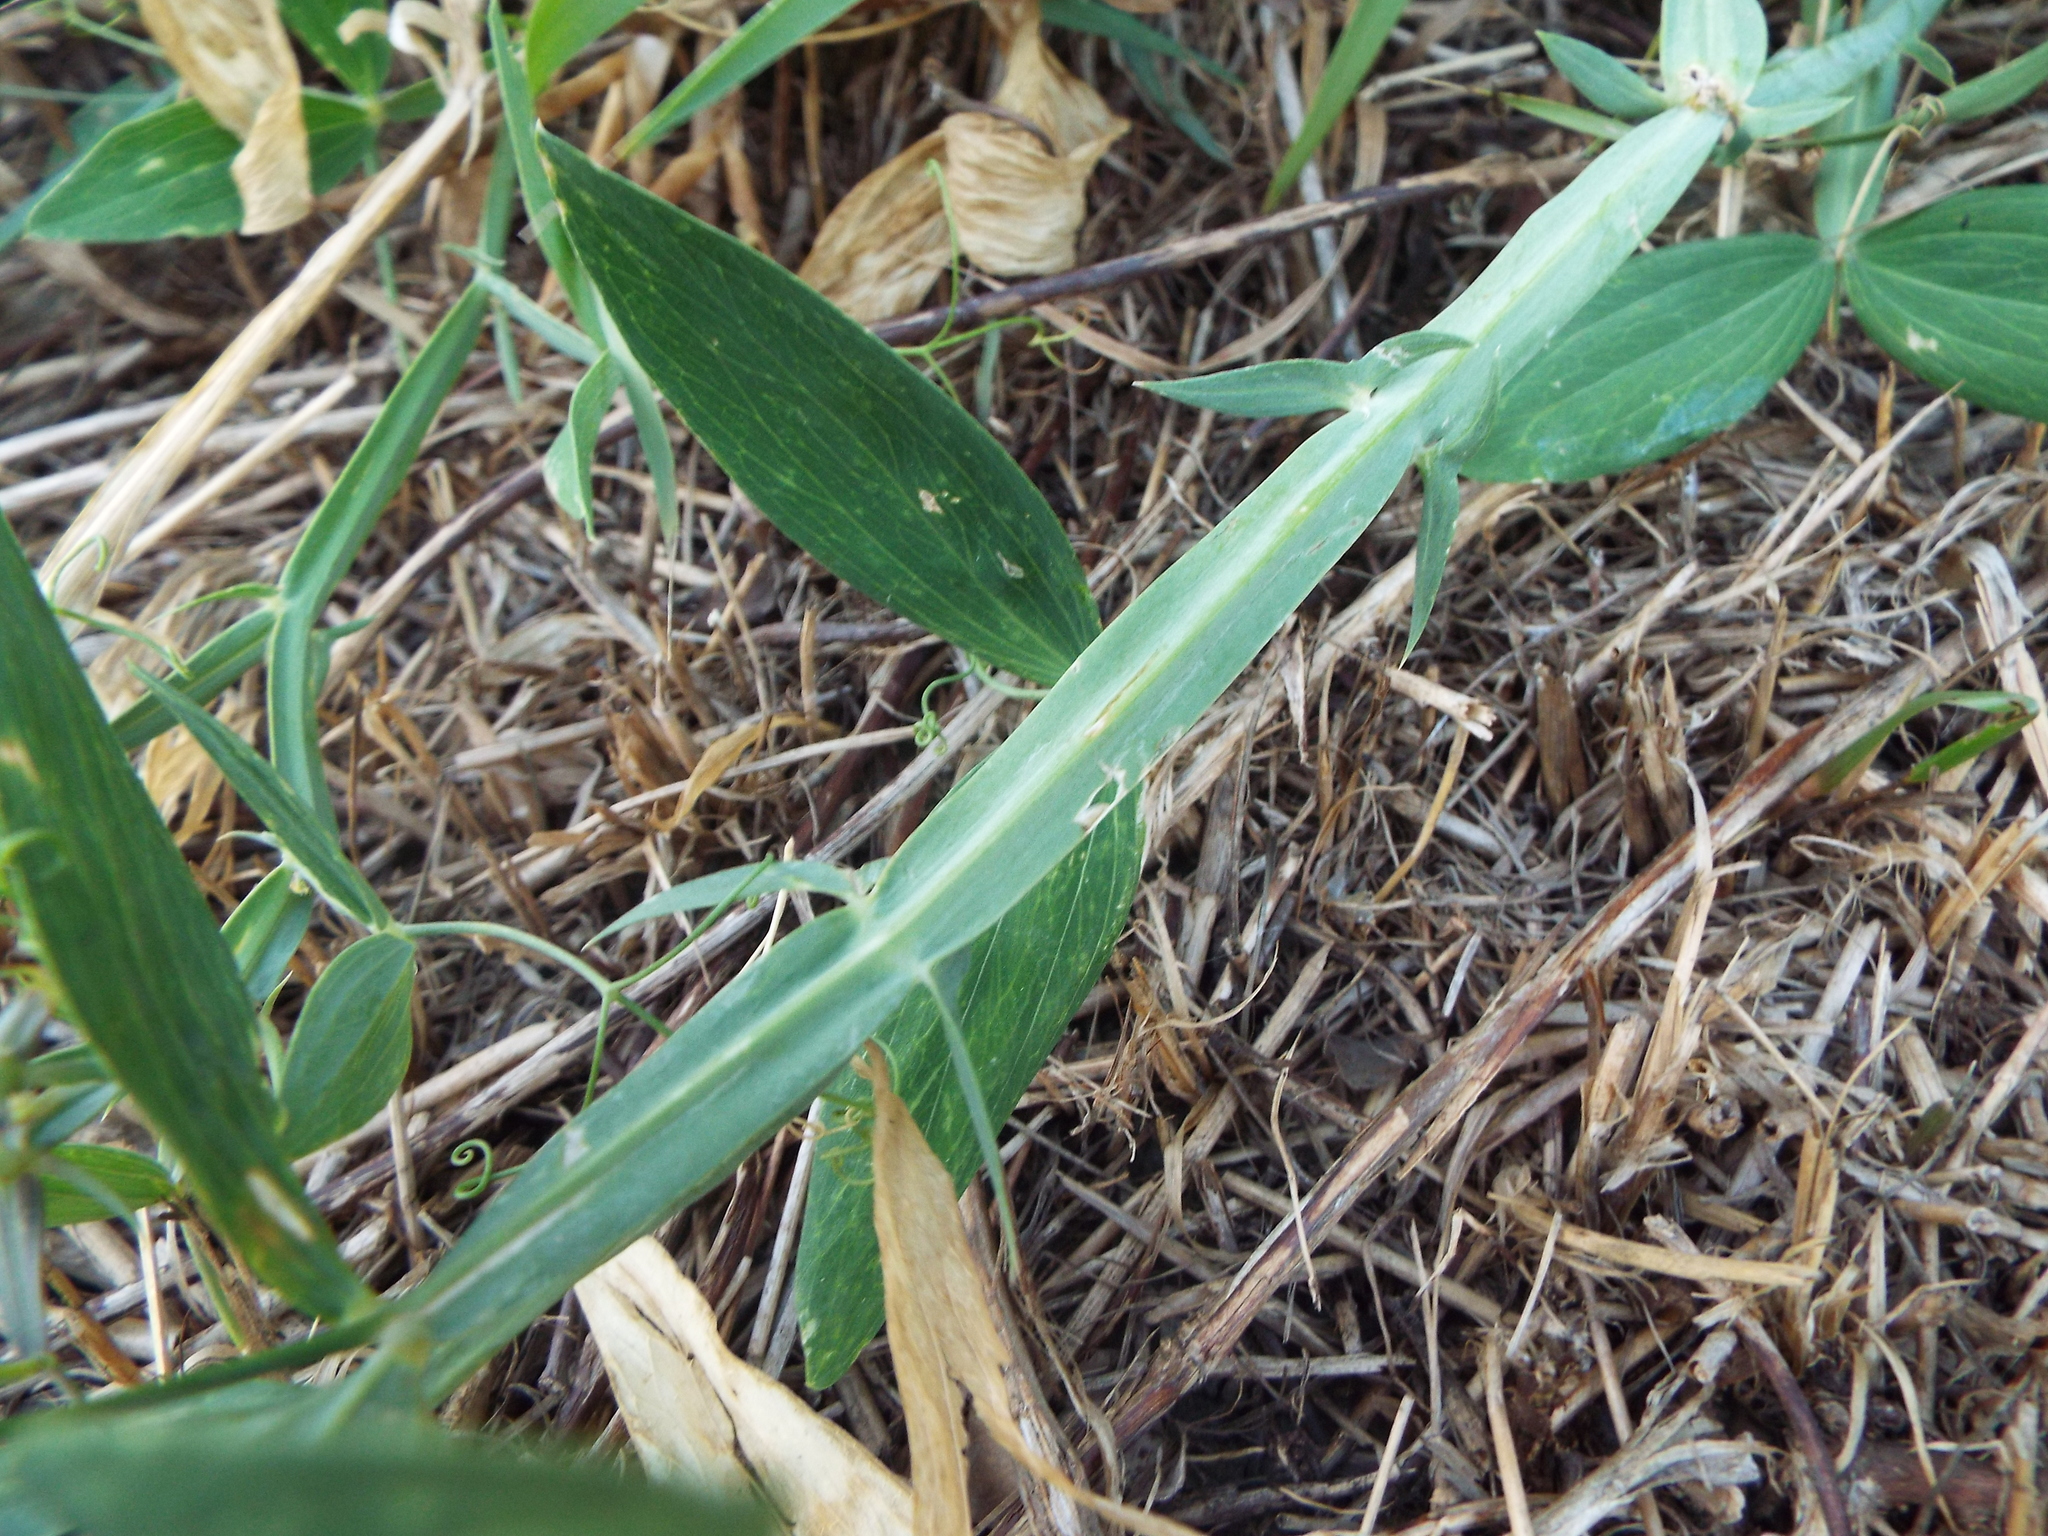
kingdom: Plantae
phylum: Tracheophyta
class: Magnoliopsida
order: Fabales
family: Fabaceae
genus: Lathyrus
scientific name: Lathyrus latifolius
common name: Perennial pea
